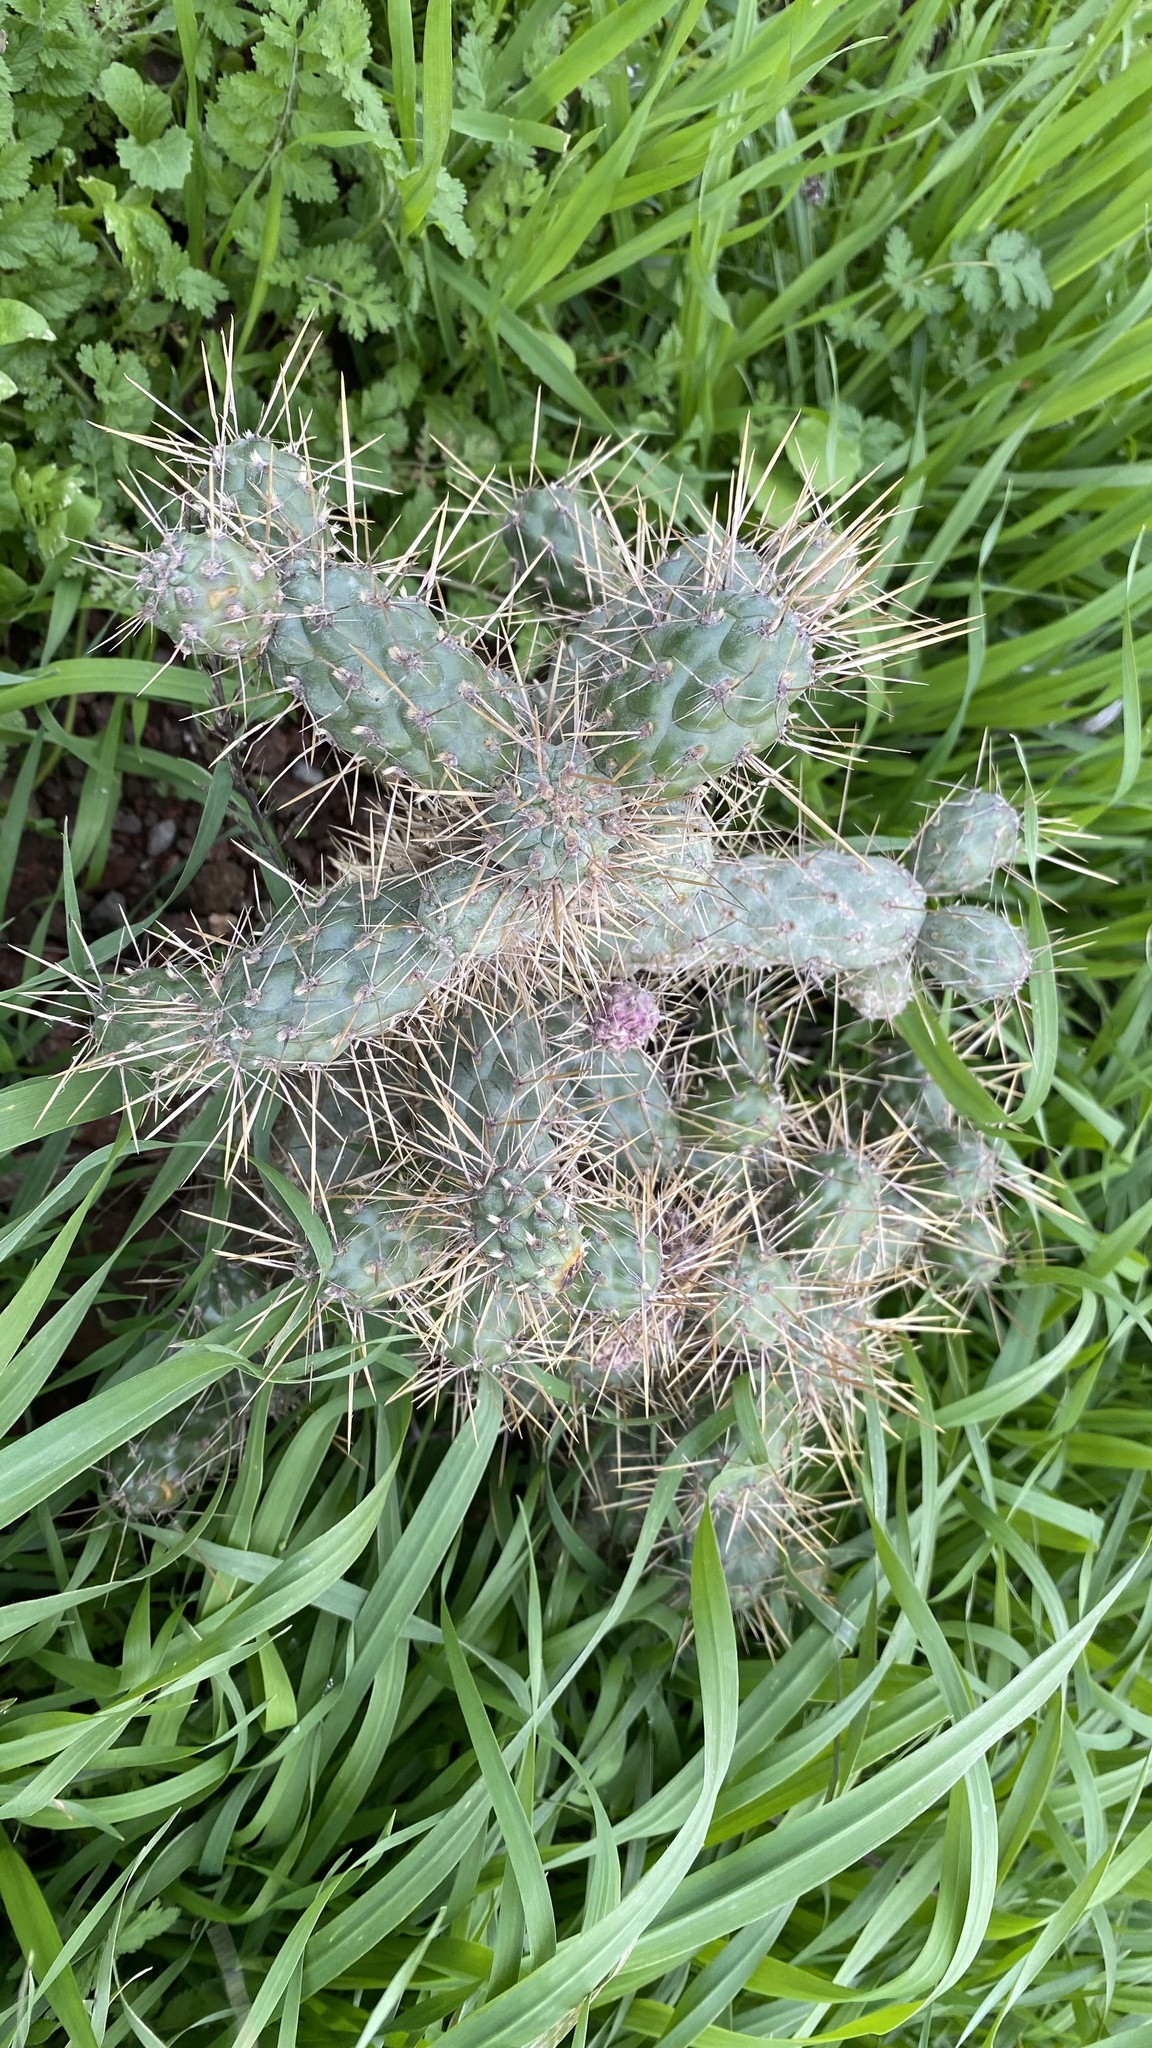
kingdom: Plantae
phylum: Tracheophyta
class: Magnoliopsida
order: Caryophyllales
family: Cactaceae
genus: Cylindropuntia
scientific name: Cylindropuntia prolifera
